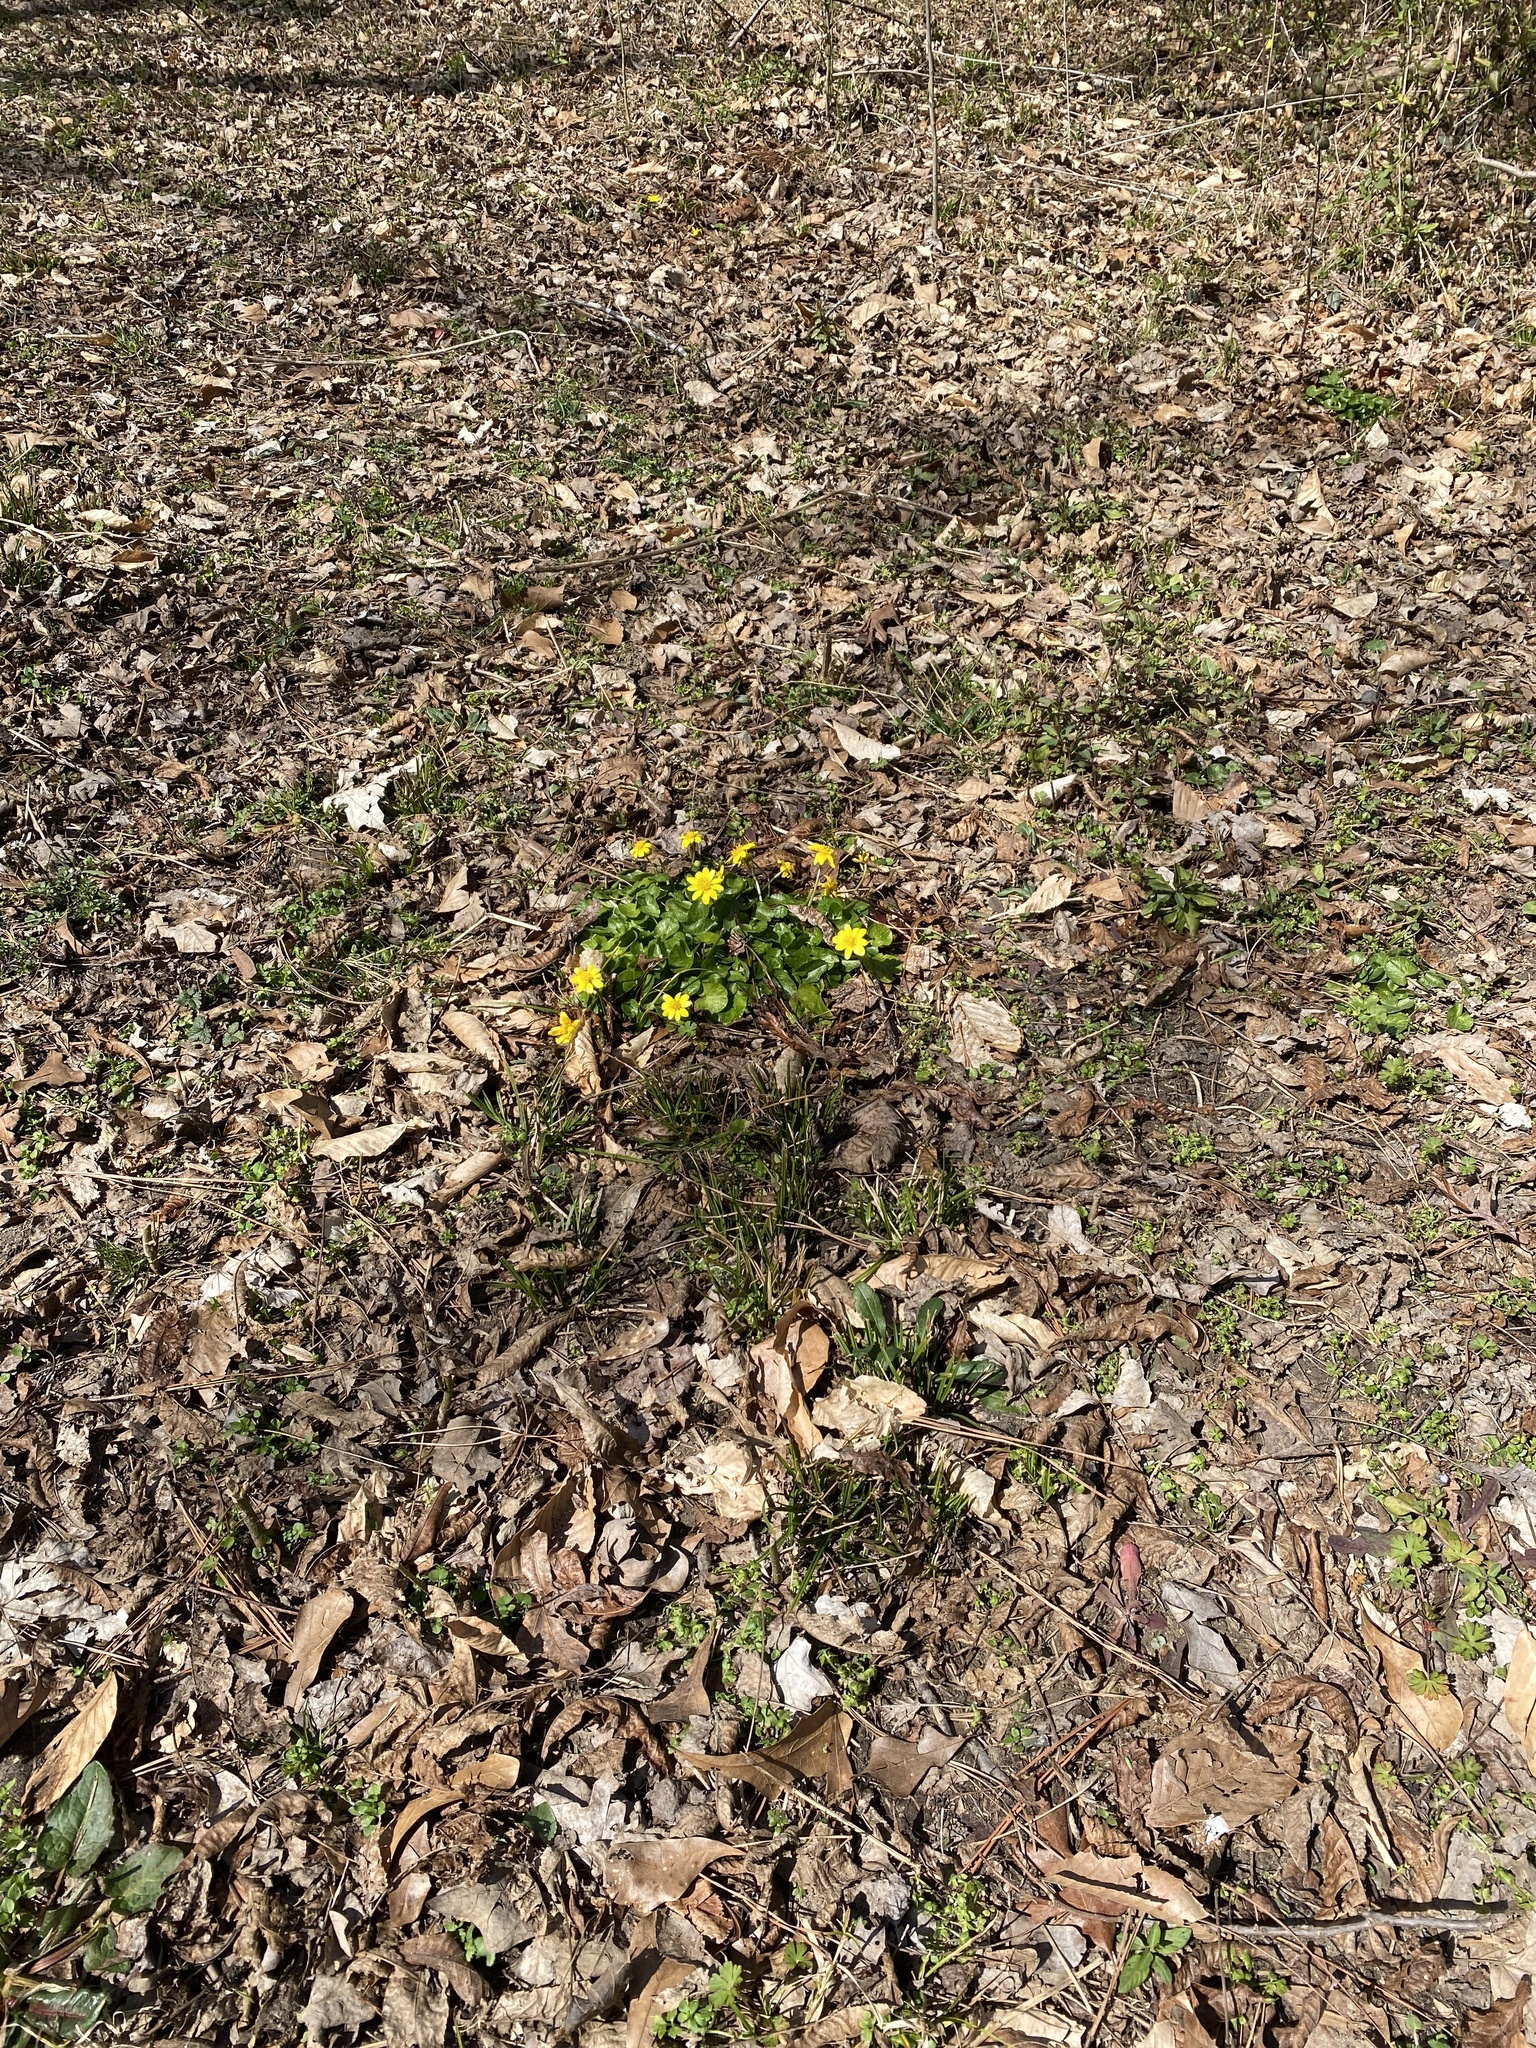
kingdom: Plantae
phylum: Tracheophyta
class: Magnoliopsida
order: Ranunculales
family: Ranunculaceae
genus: Ficaria
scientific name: Ficaria verna
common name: Lesser celandine
